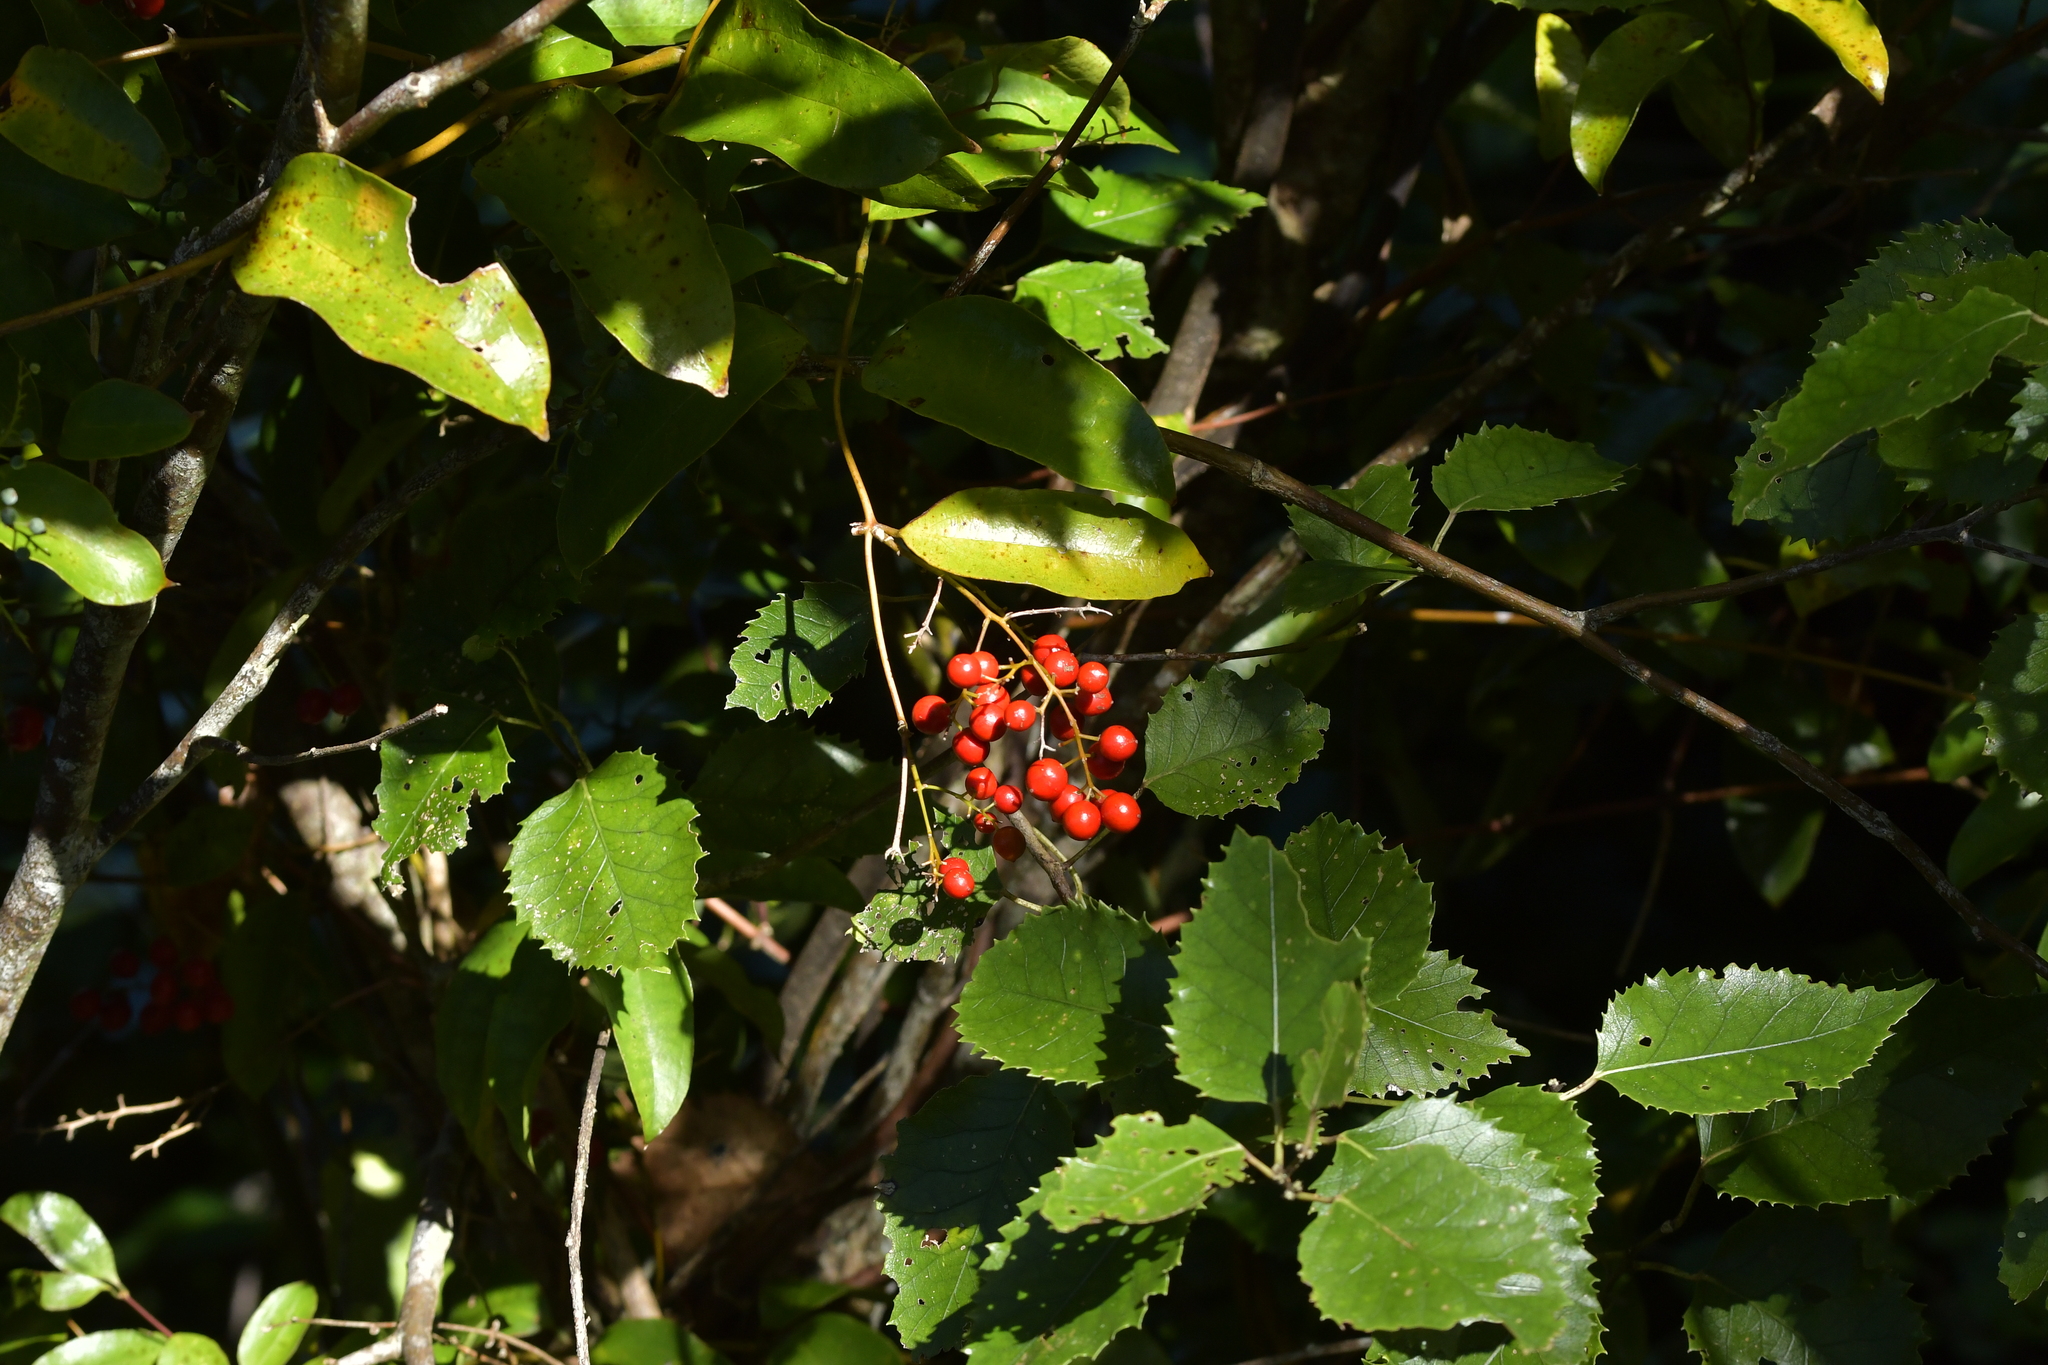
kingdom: Plantae
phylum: Tracheophyta
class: Liliopsida
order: Liliales
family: Ripogonaceae
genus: Ripogonum
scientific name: Ripogonum scandens
